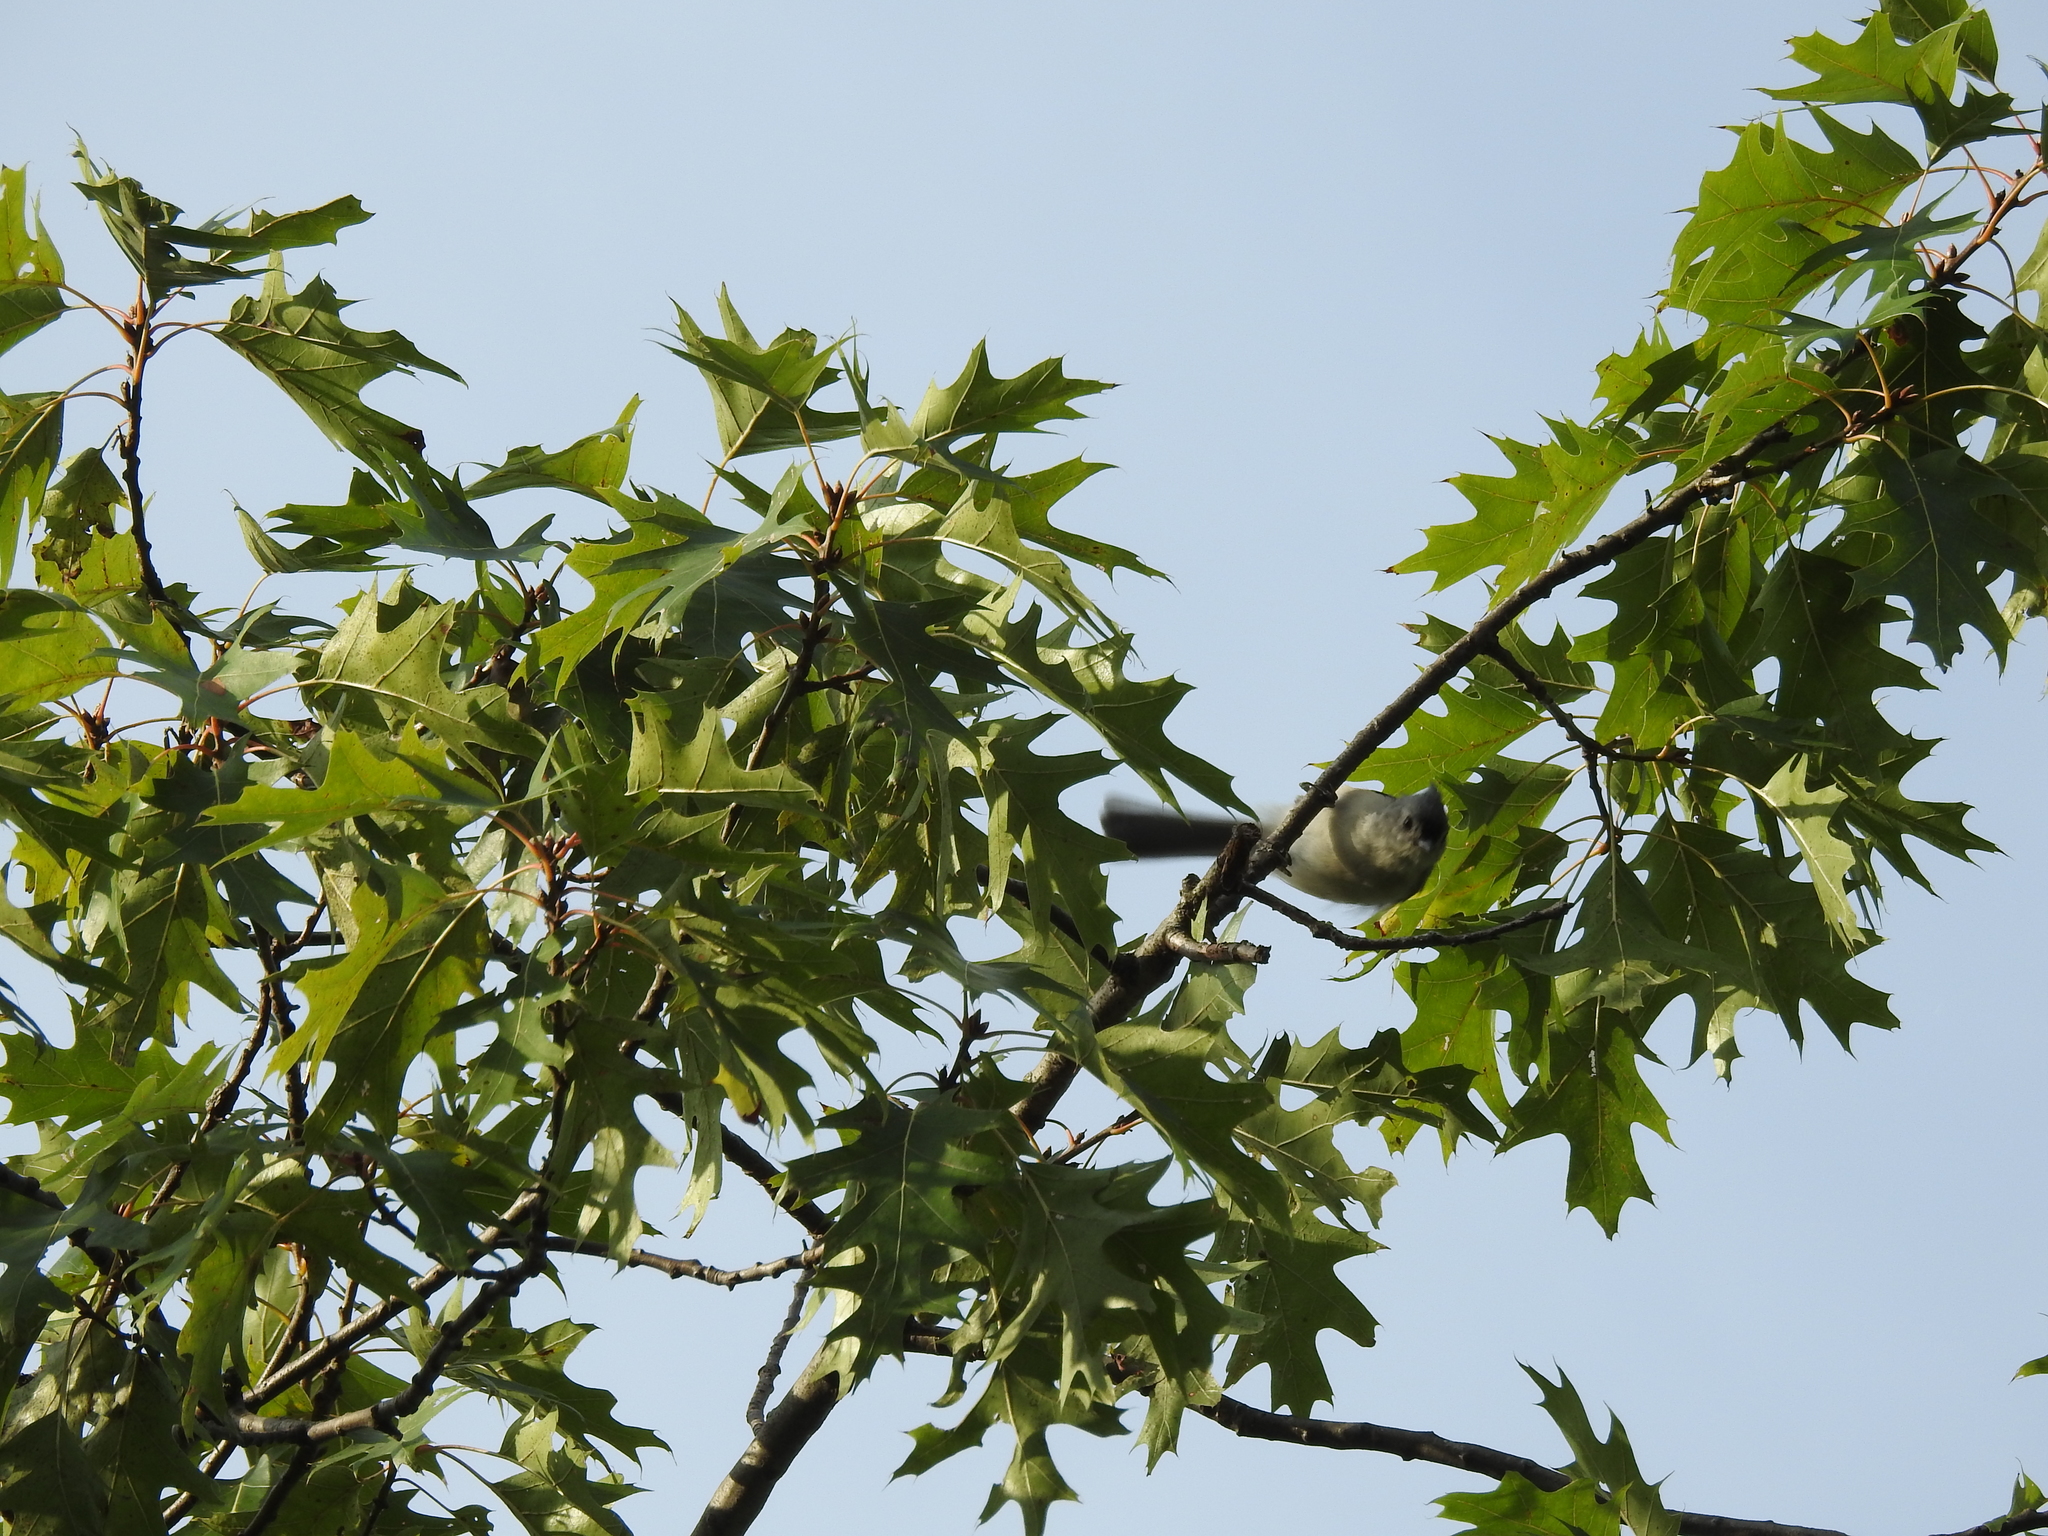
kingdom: Animalia
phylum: Chordata
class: Aves
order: Passeriformes
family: Paridae
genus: Baeolophus
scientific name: Baeolophus bicolor
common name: Tufted titmouse
